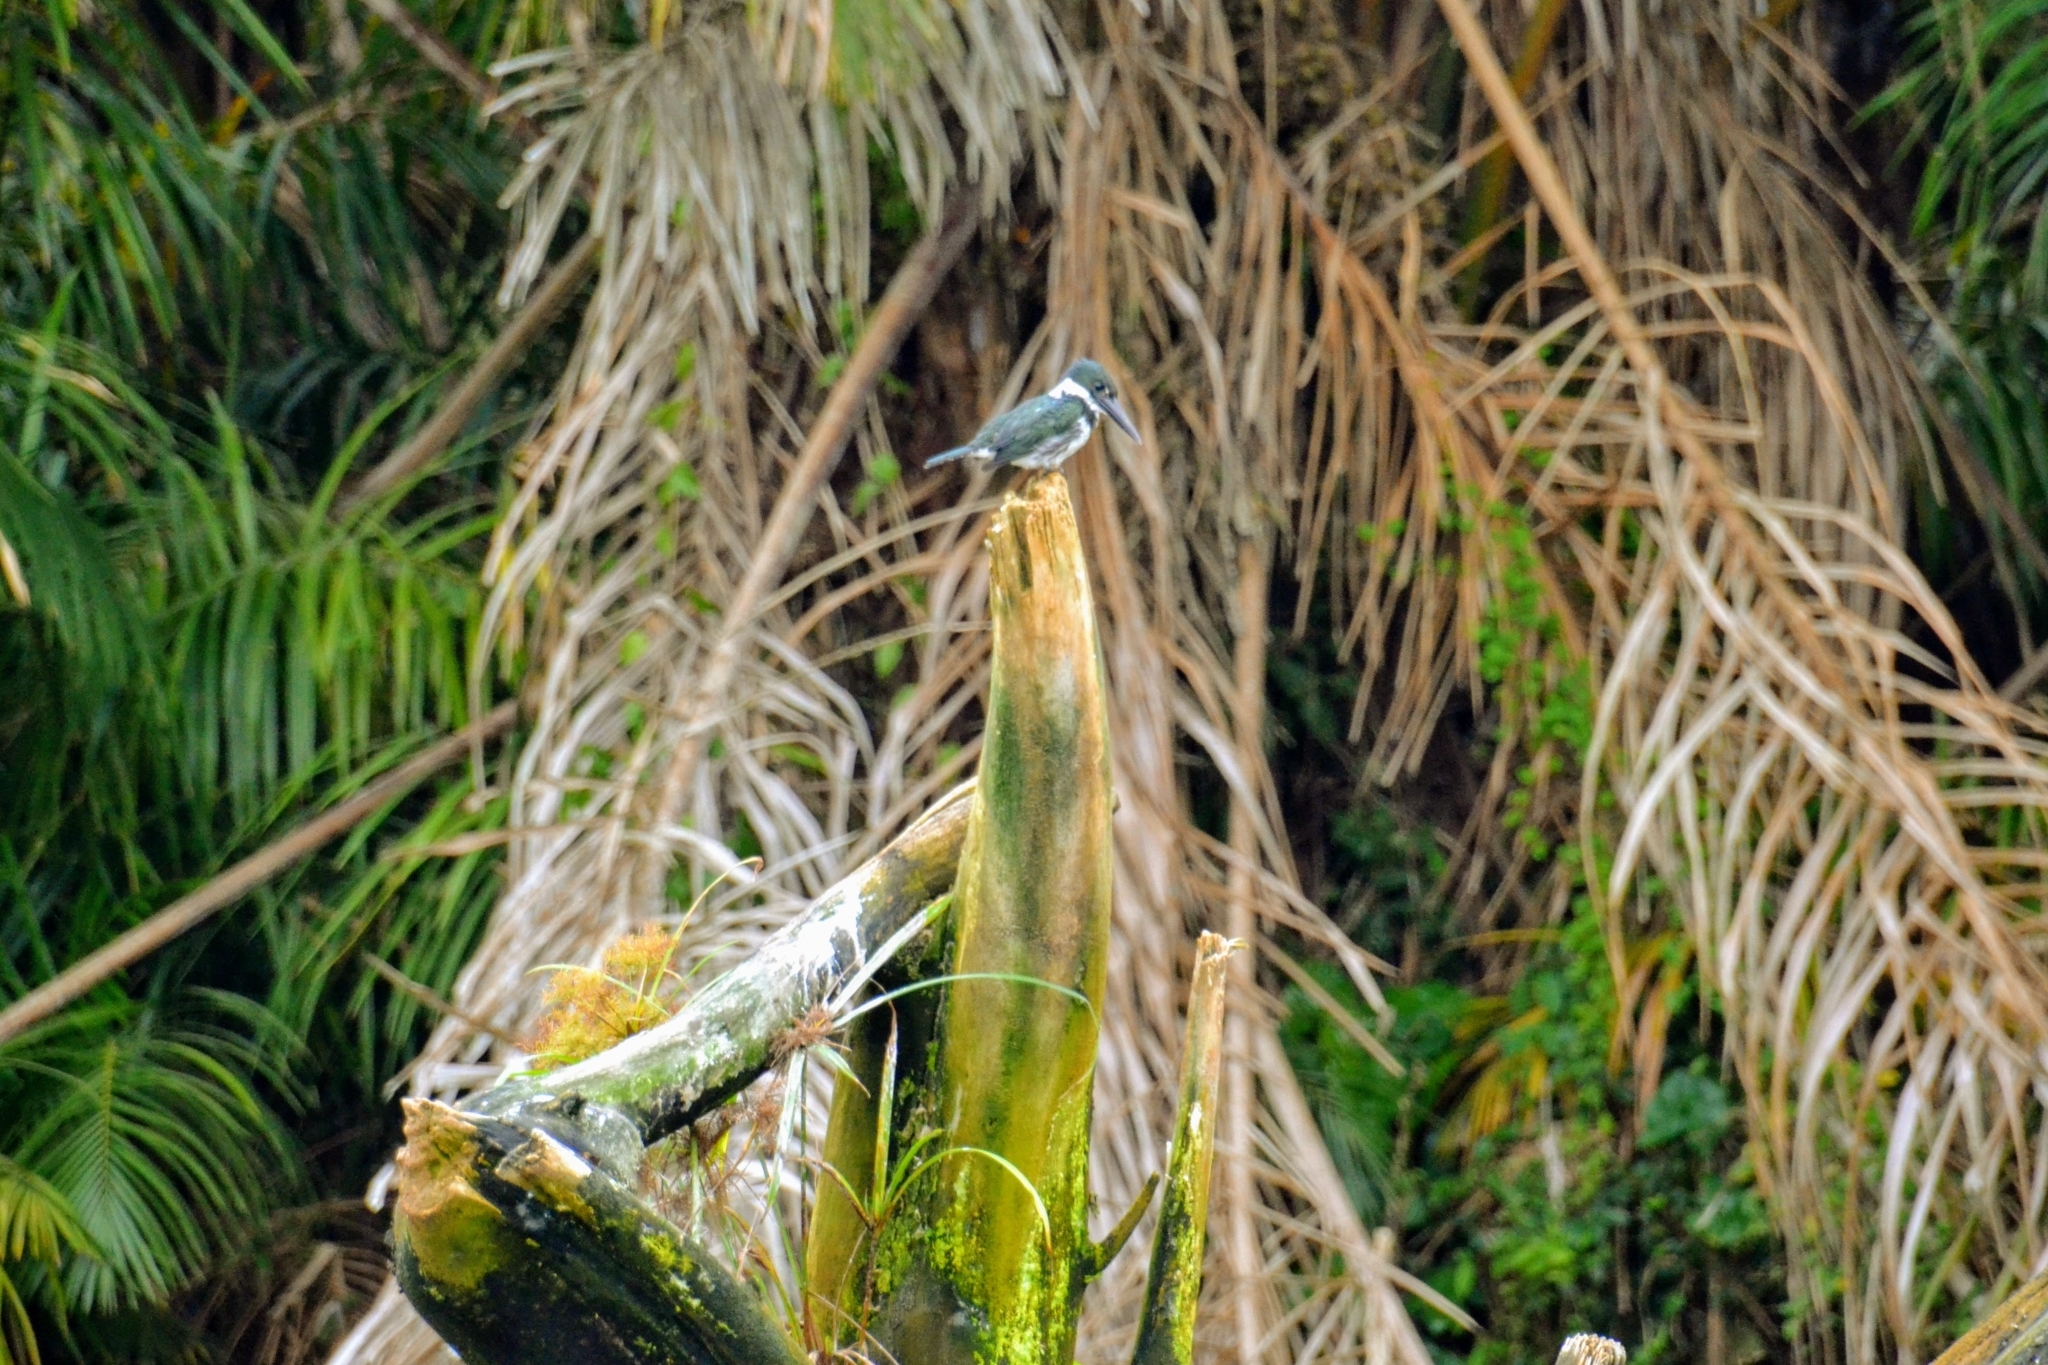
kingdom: Animalia
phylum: Chordata
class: Aves
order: Coraciiformes
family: Alcedinidae
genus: Chloroceryle
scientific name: Chloroceryle amazona
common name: Amazon kingfisher
